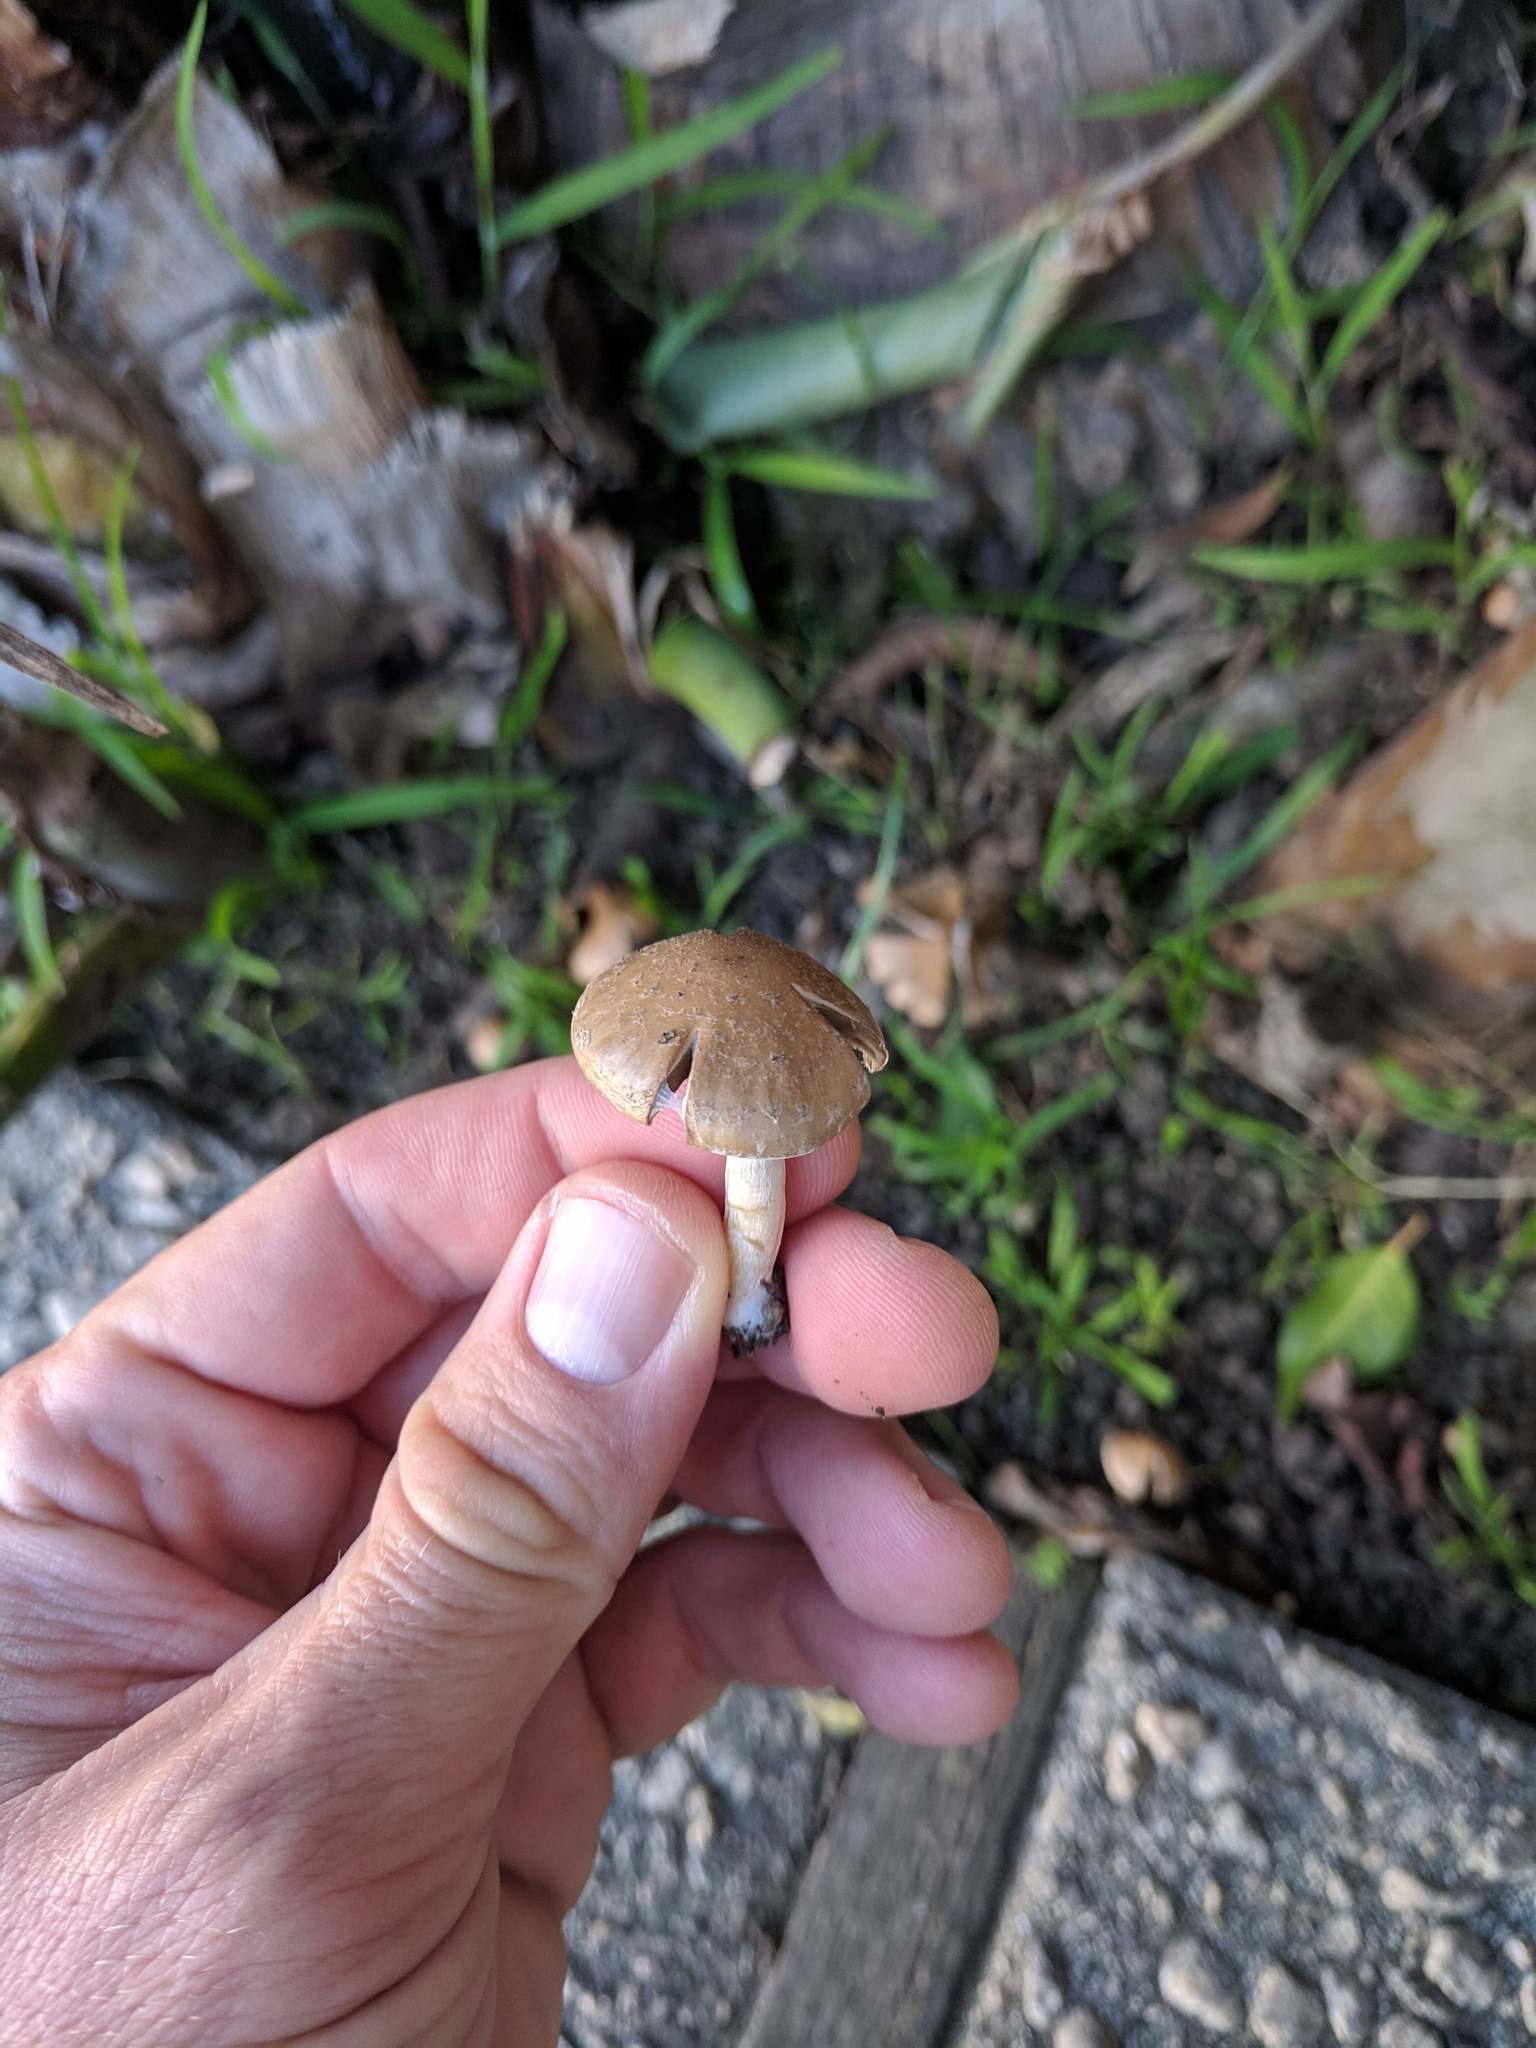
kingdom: Fungi
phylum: Basidiomycota
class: Agaricomycetes
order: Agaricales
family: Psathyrellaceae
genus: Candolleomyces
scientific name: Candolleomyces candolleanus
